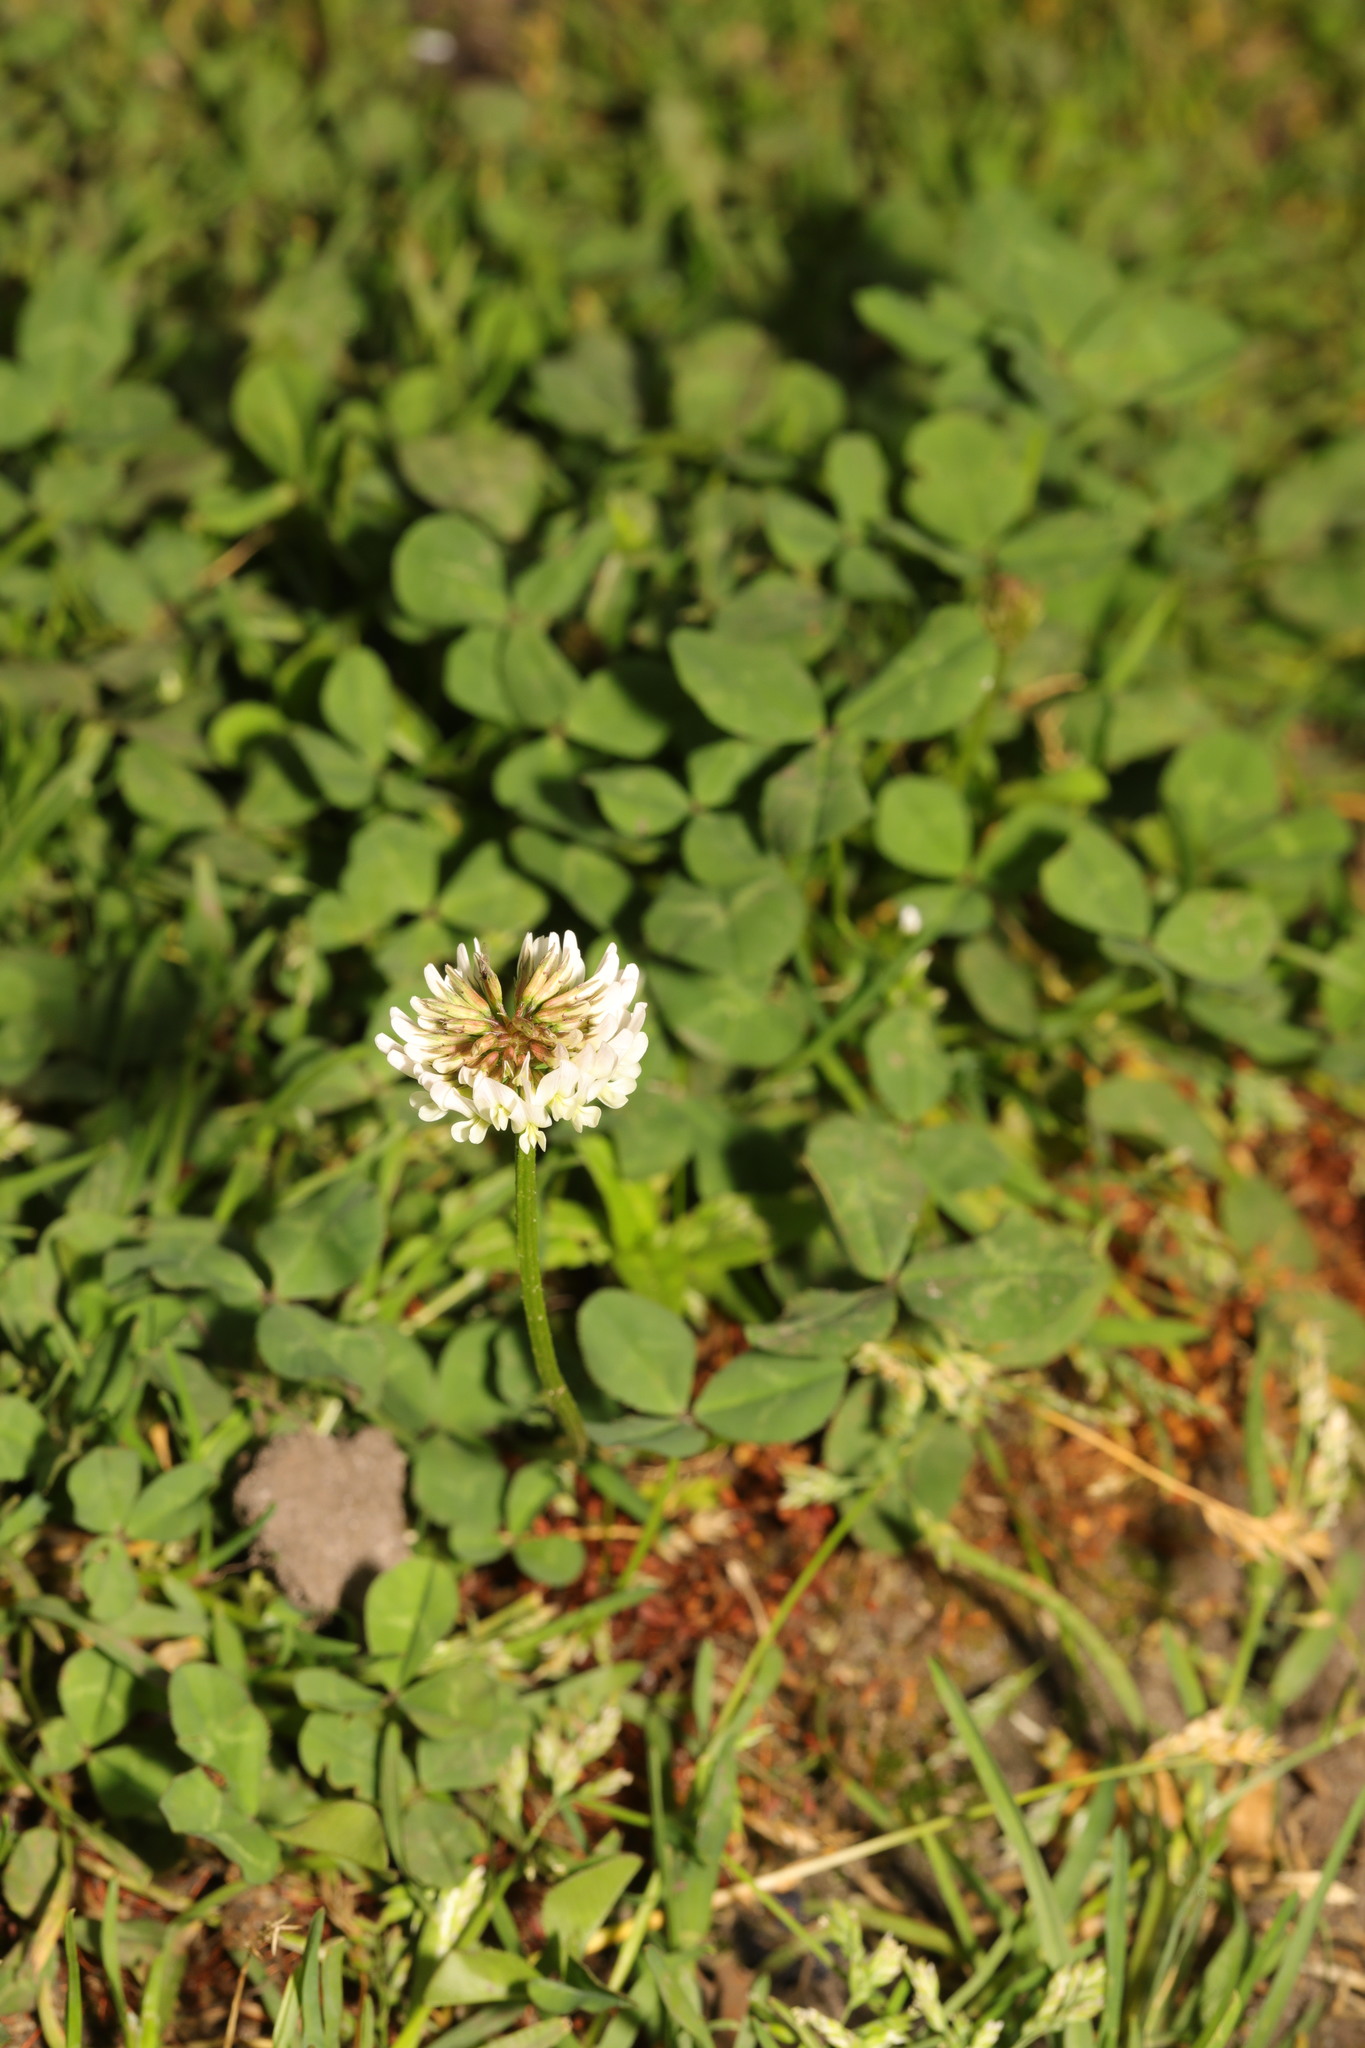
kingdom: Plantae
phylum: Tracheophyta
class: Magnoliopsida
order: Fabales
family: Fabaceae
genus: Trifolium
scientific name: Trifolium repens
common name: White clover
